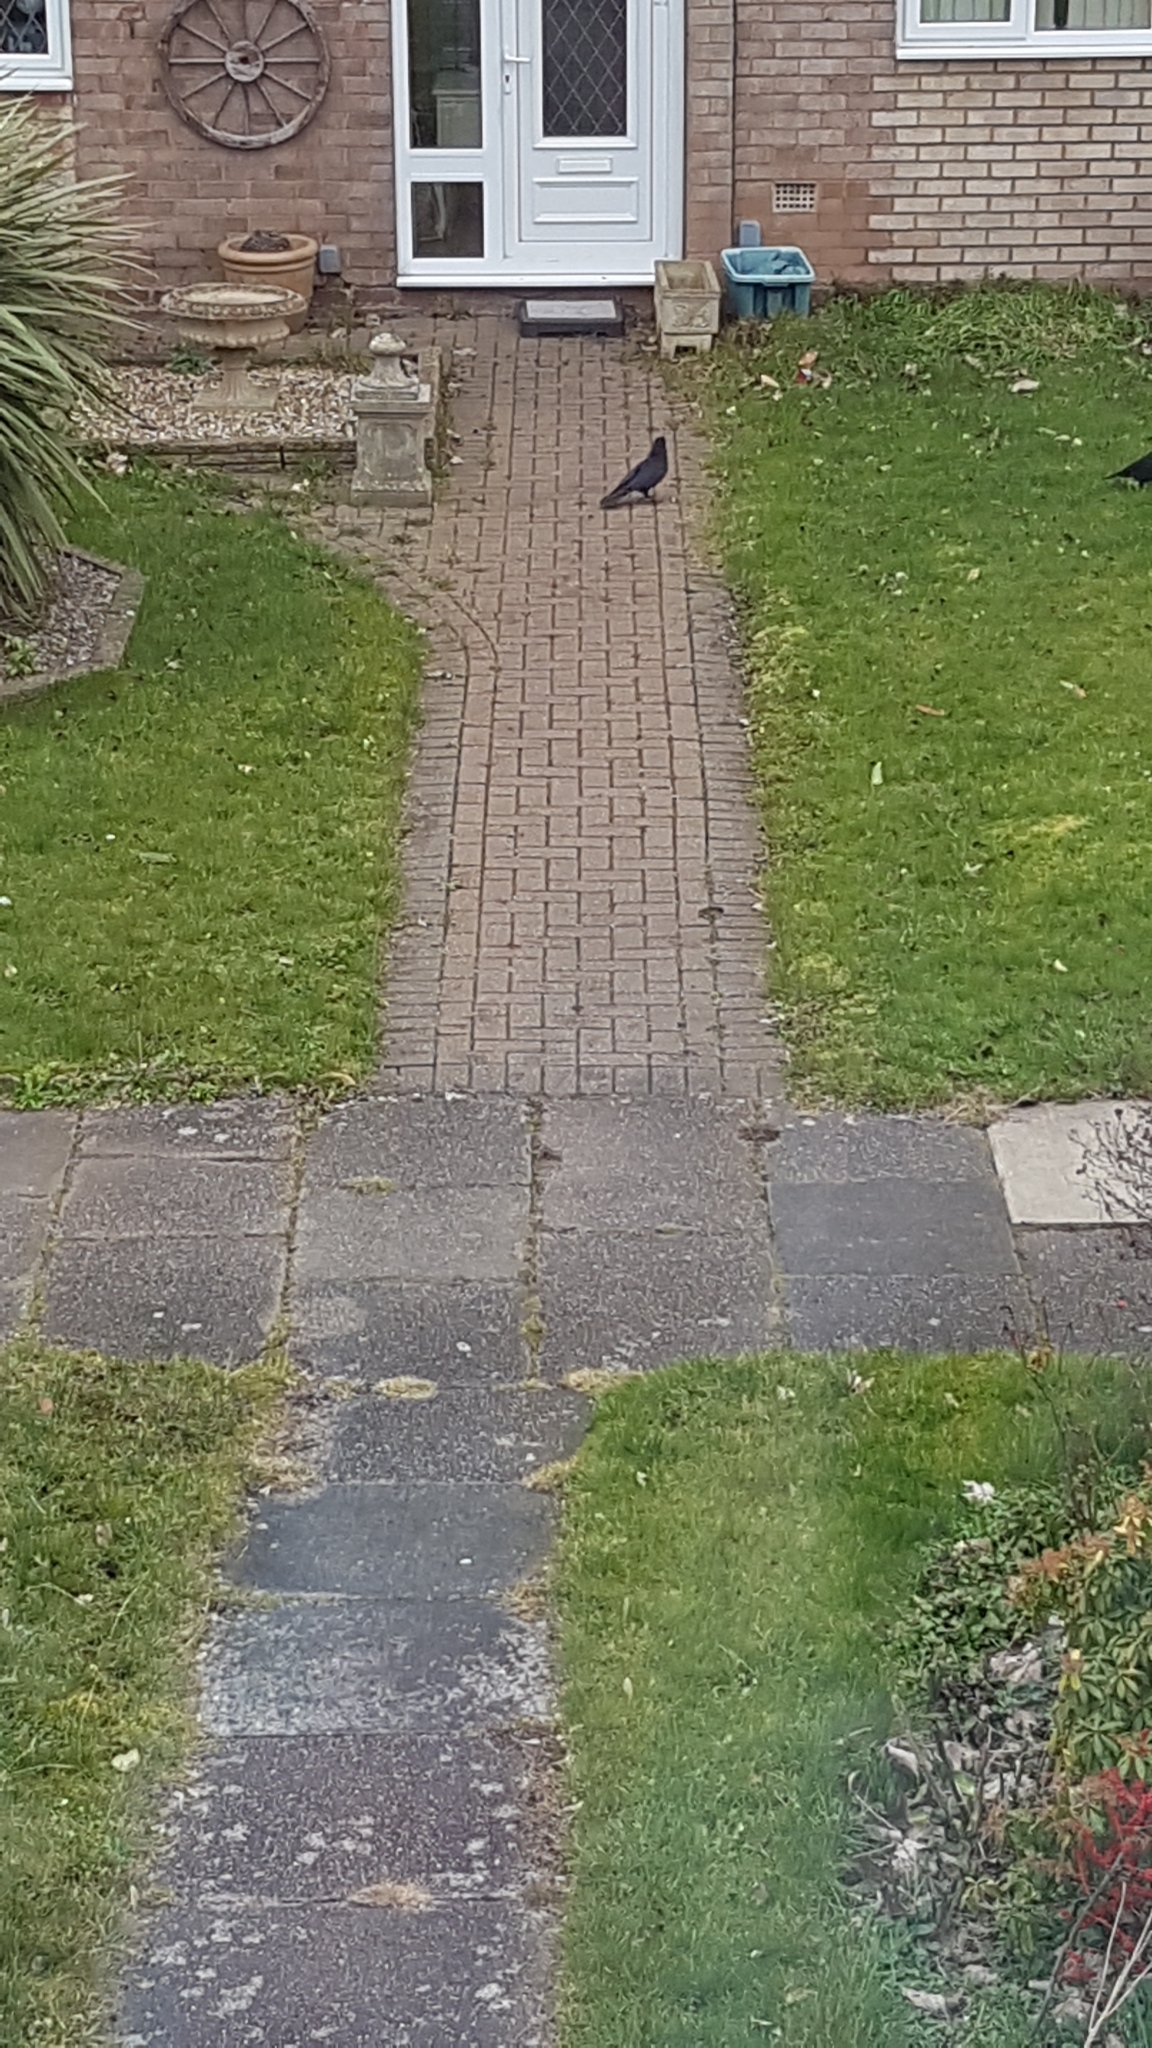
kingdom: Animalia
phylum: Chordata
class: Aves
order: Passeriformes
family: Corvidae
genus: Corvus
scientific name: Corvus corone
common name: Carrion crow
